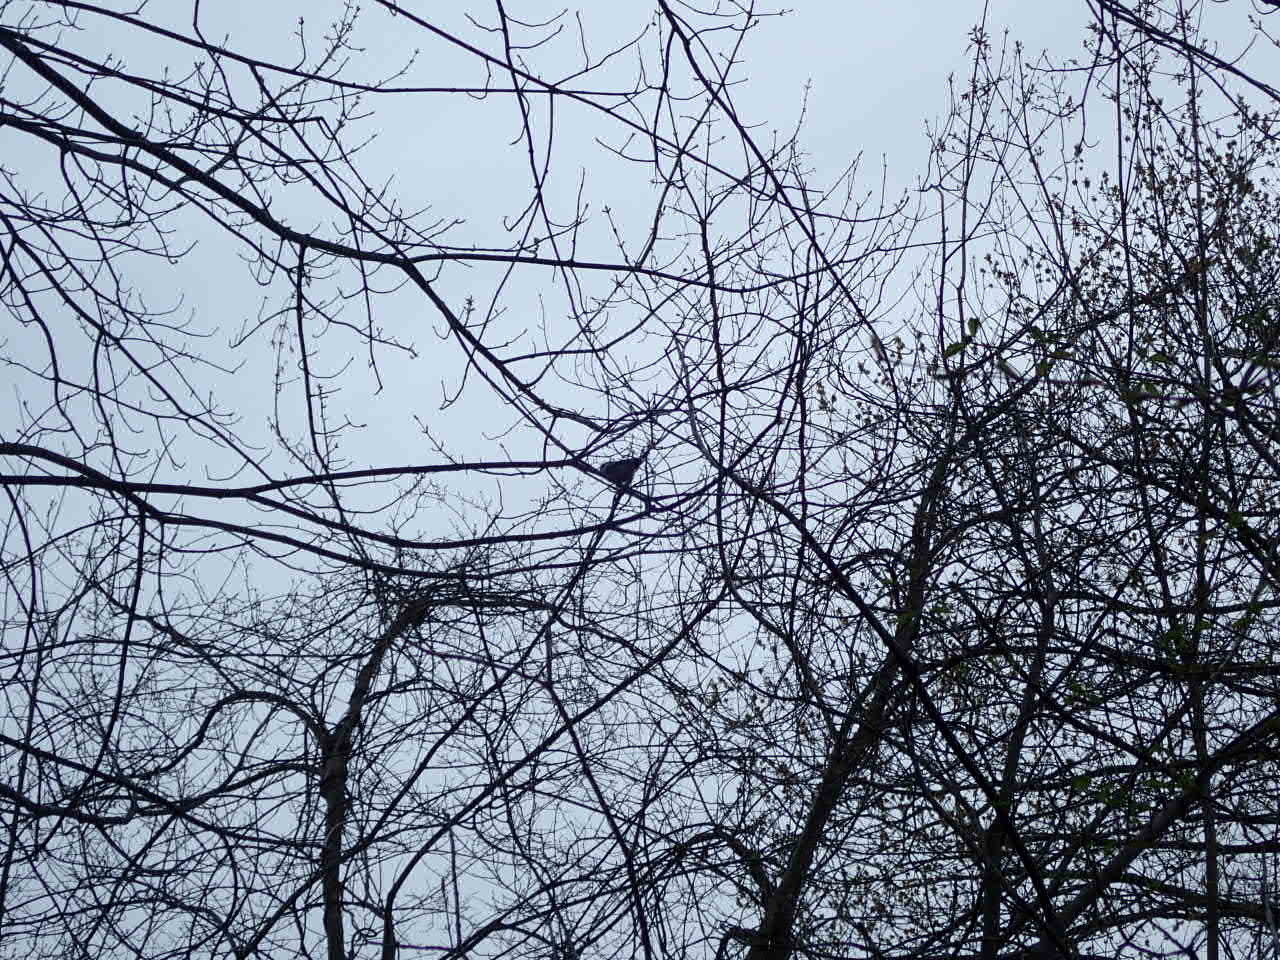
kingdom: Animalia
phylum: Chordata
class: Aves
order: Passeriformes
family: Paridae
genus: Poecile
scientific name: Poecile atricapillus
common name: Black-capped chickadee
